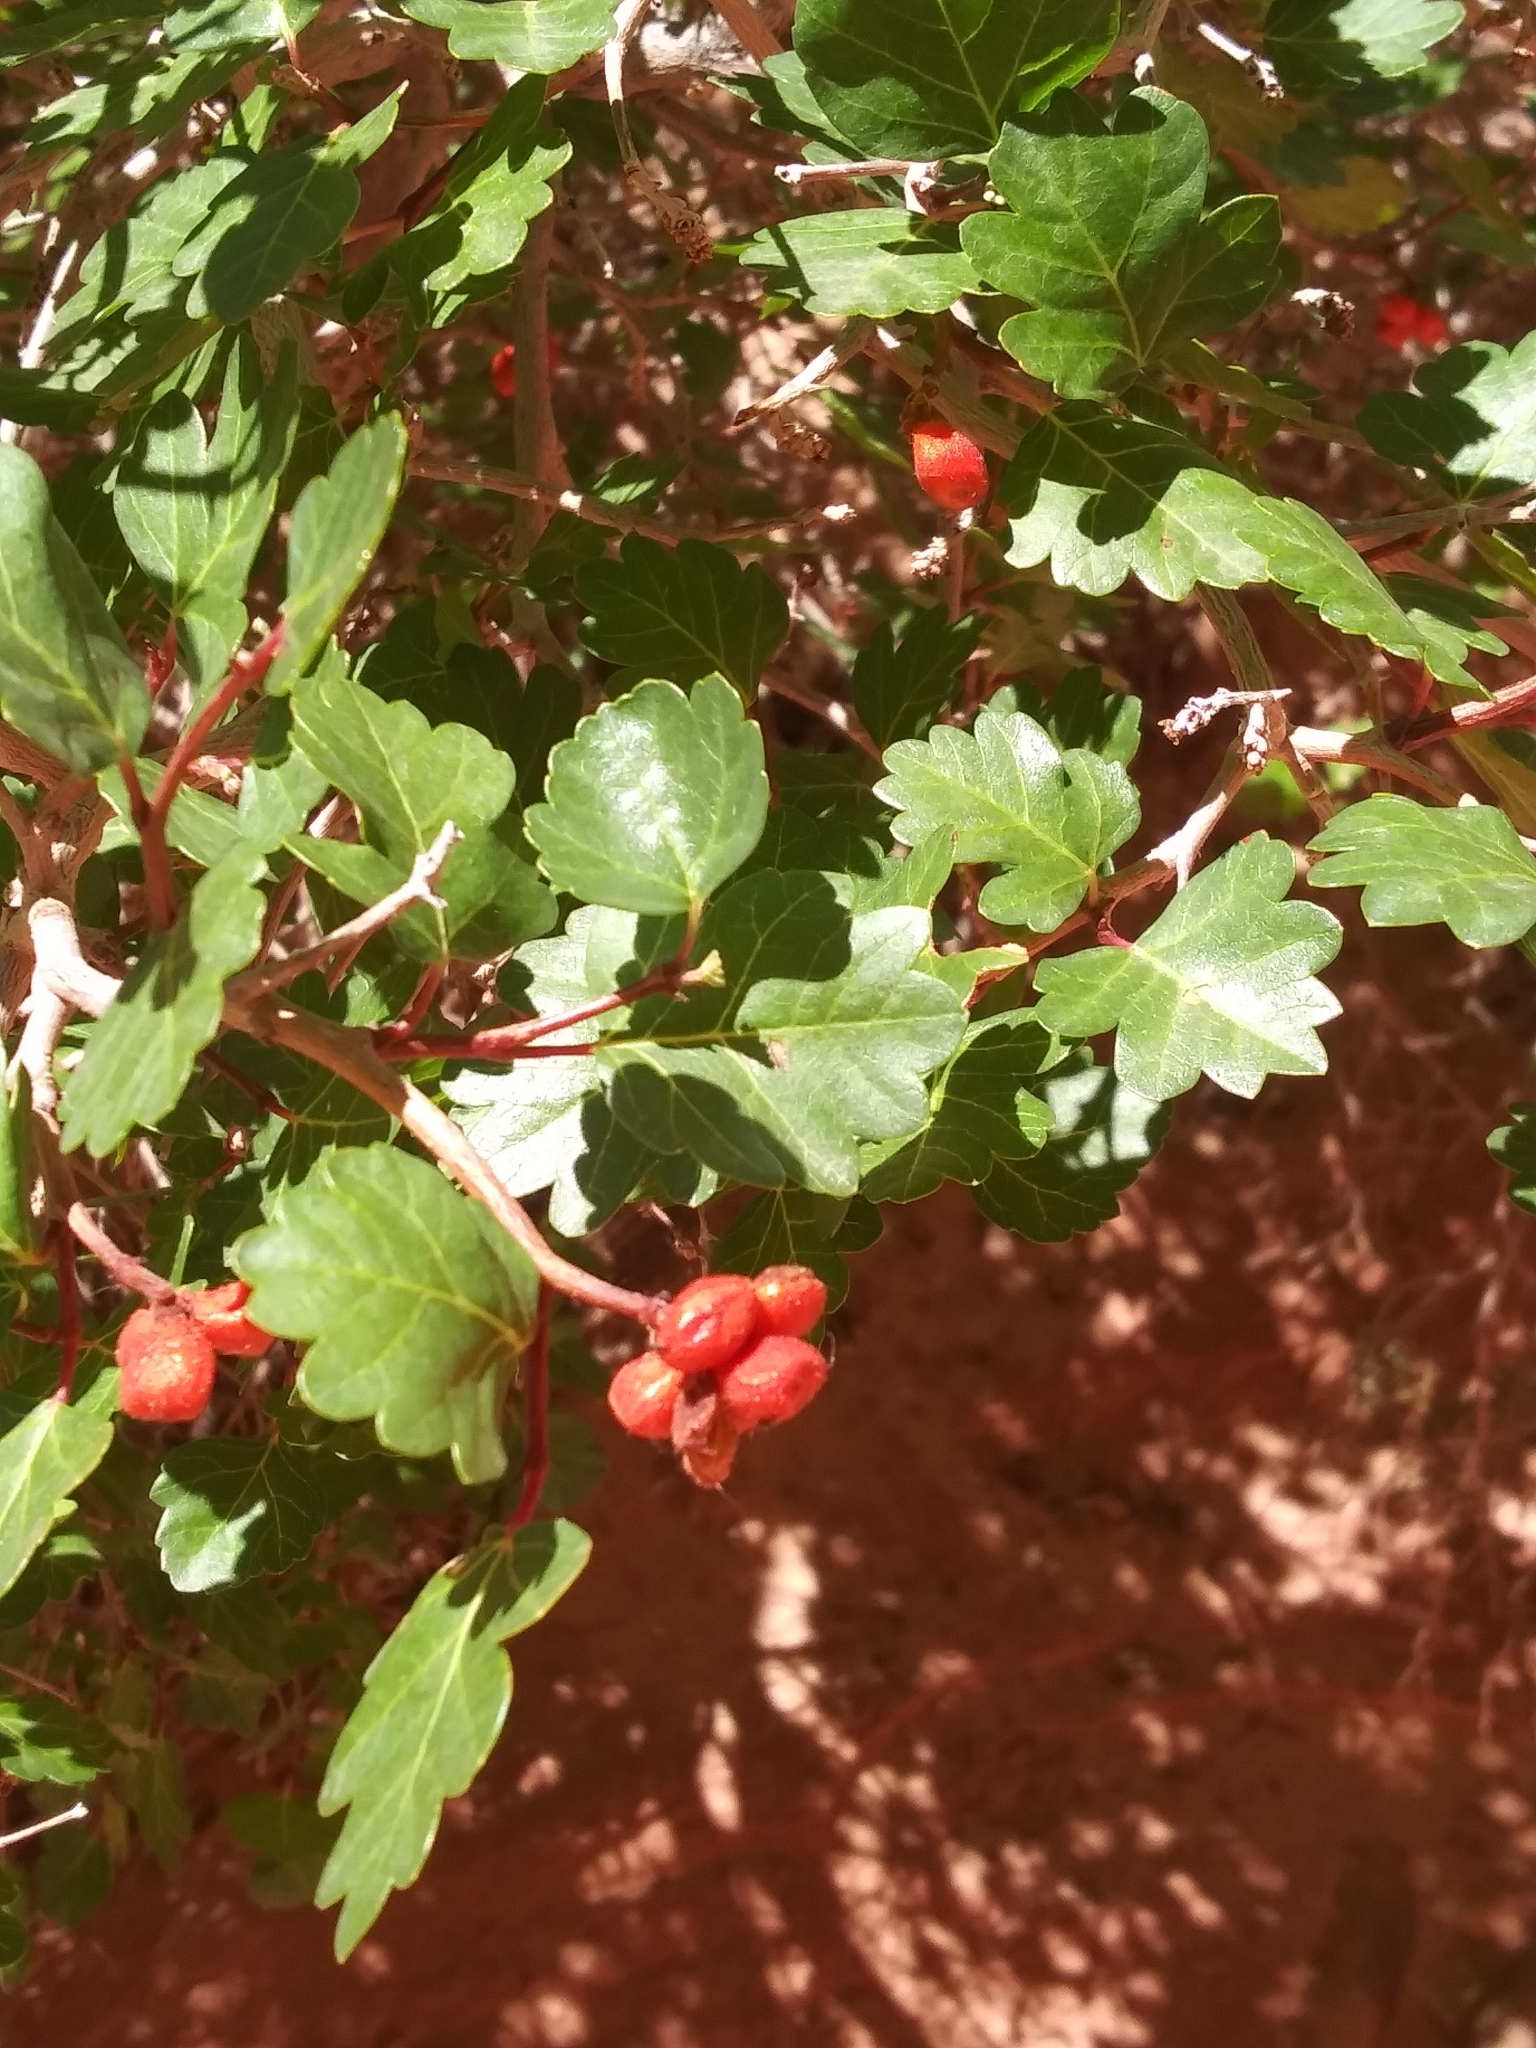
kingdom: Plantae
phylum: Tracheophyta
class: Magnoliopsida
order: Sapindales
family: Anacardiaceae
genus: Rhus
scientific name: Rhus aromatica
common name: Aromatic sumac
